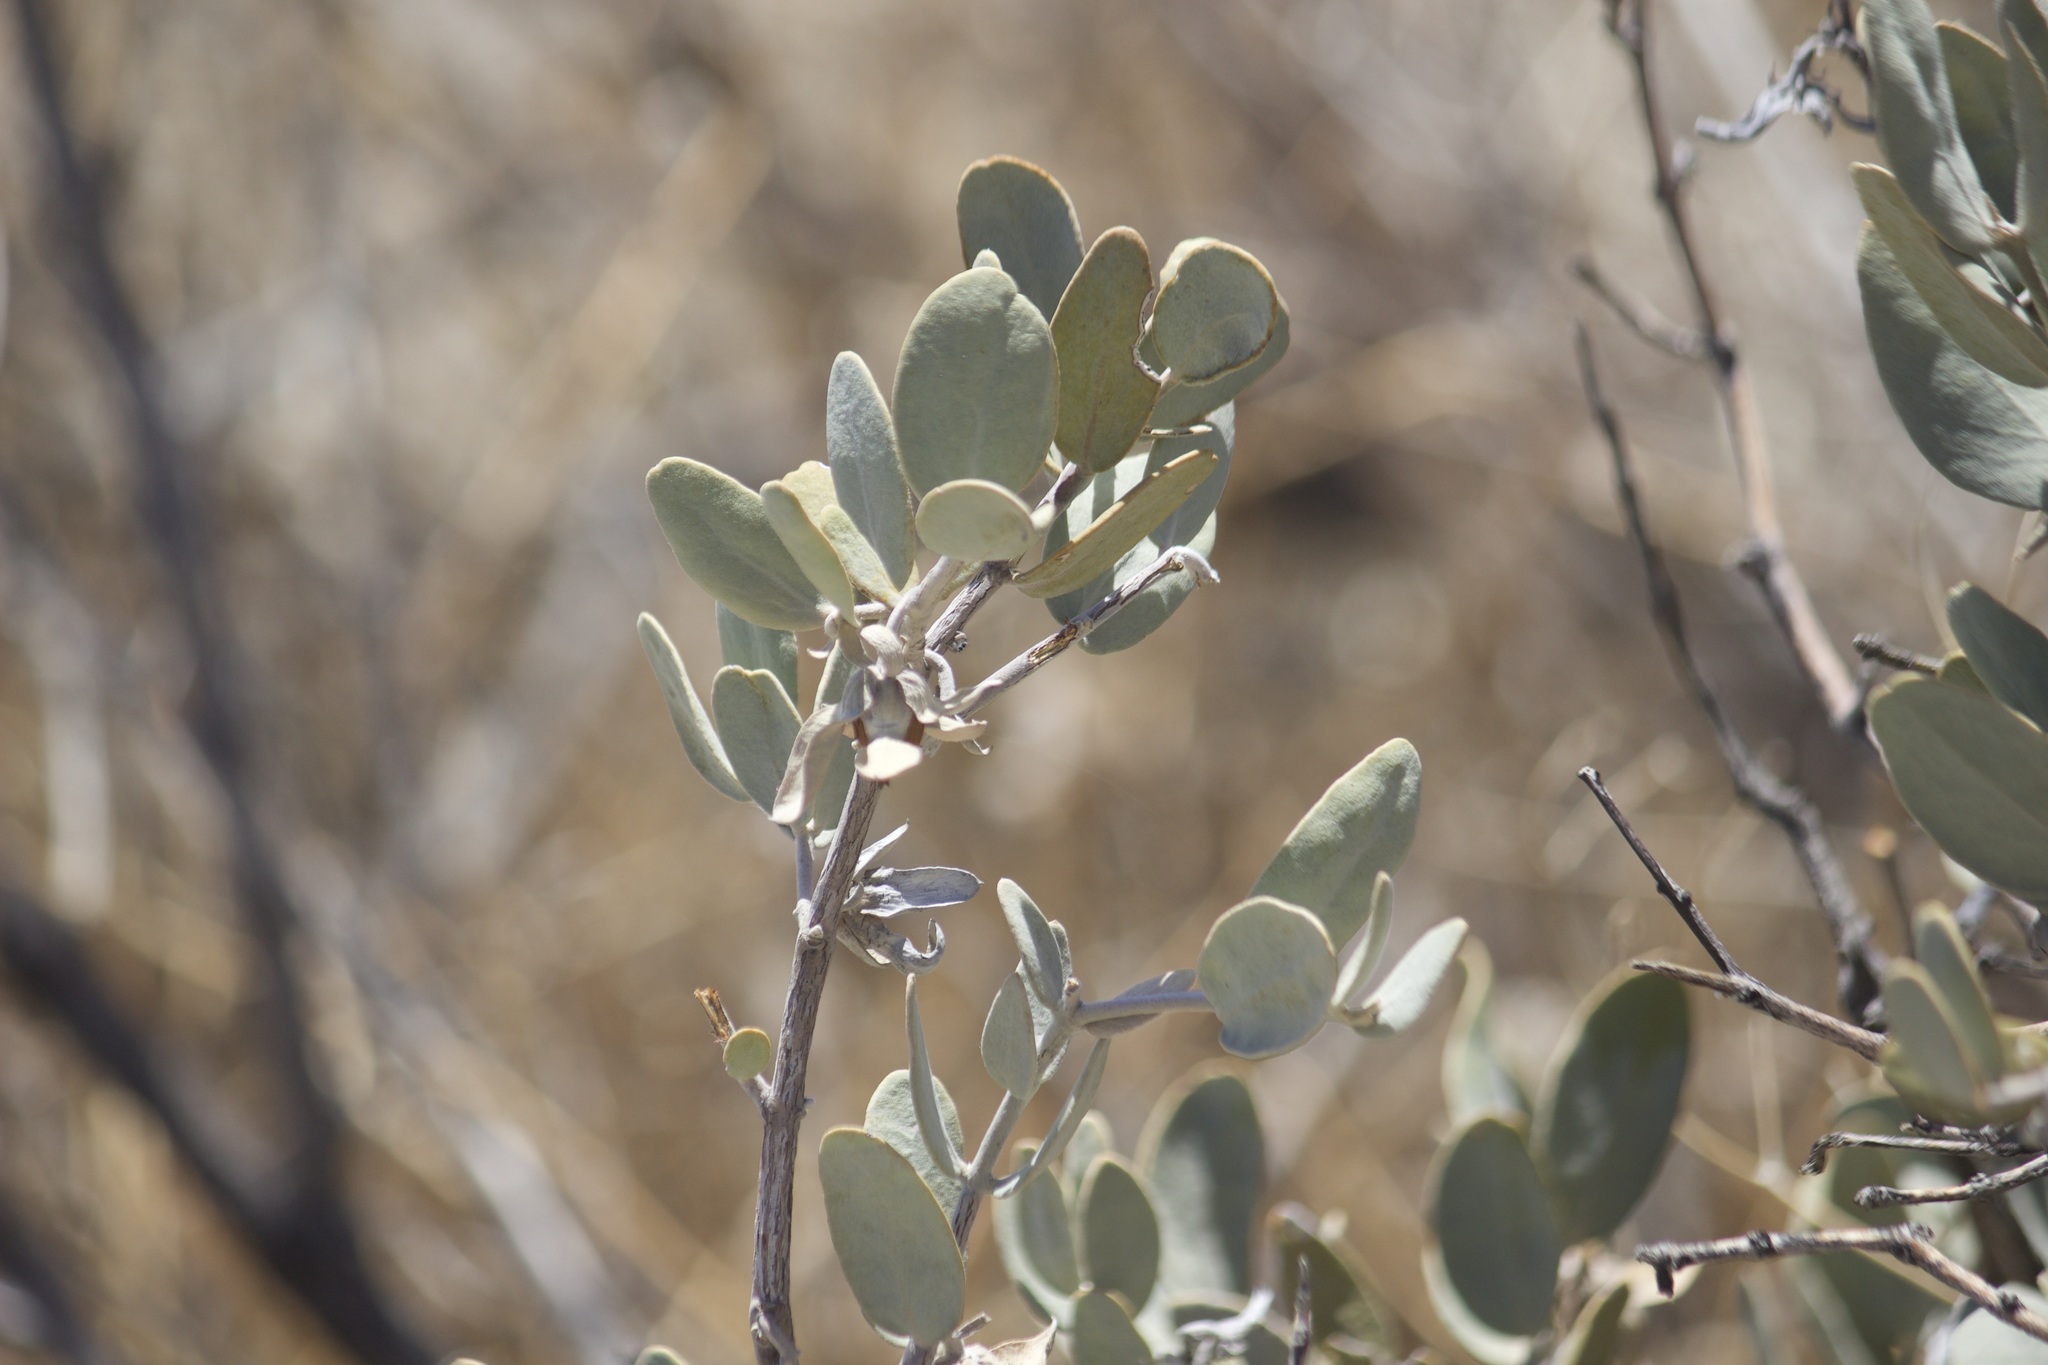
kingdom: Plantae
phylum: Tracheophyta
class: Magnoliopsida
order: Caryophyllales
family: Simmondsiaceae
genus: Simmondsia
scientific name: Simmondsia chinensis
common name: Jojoba
